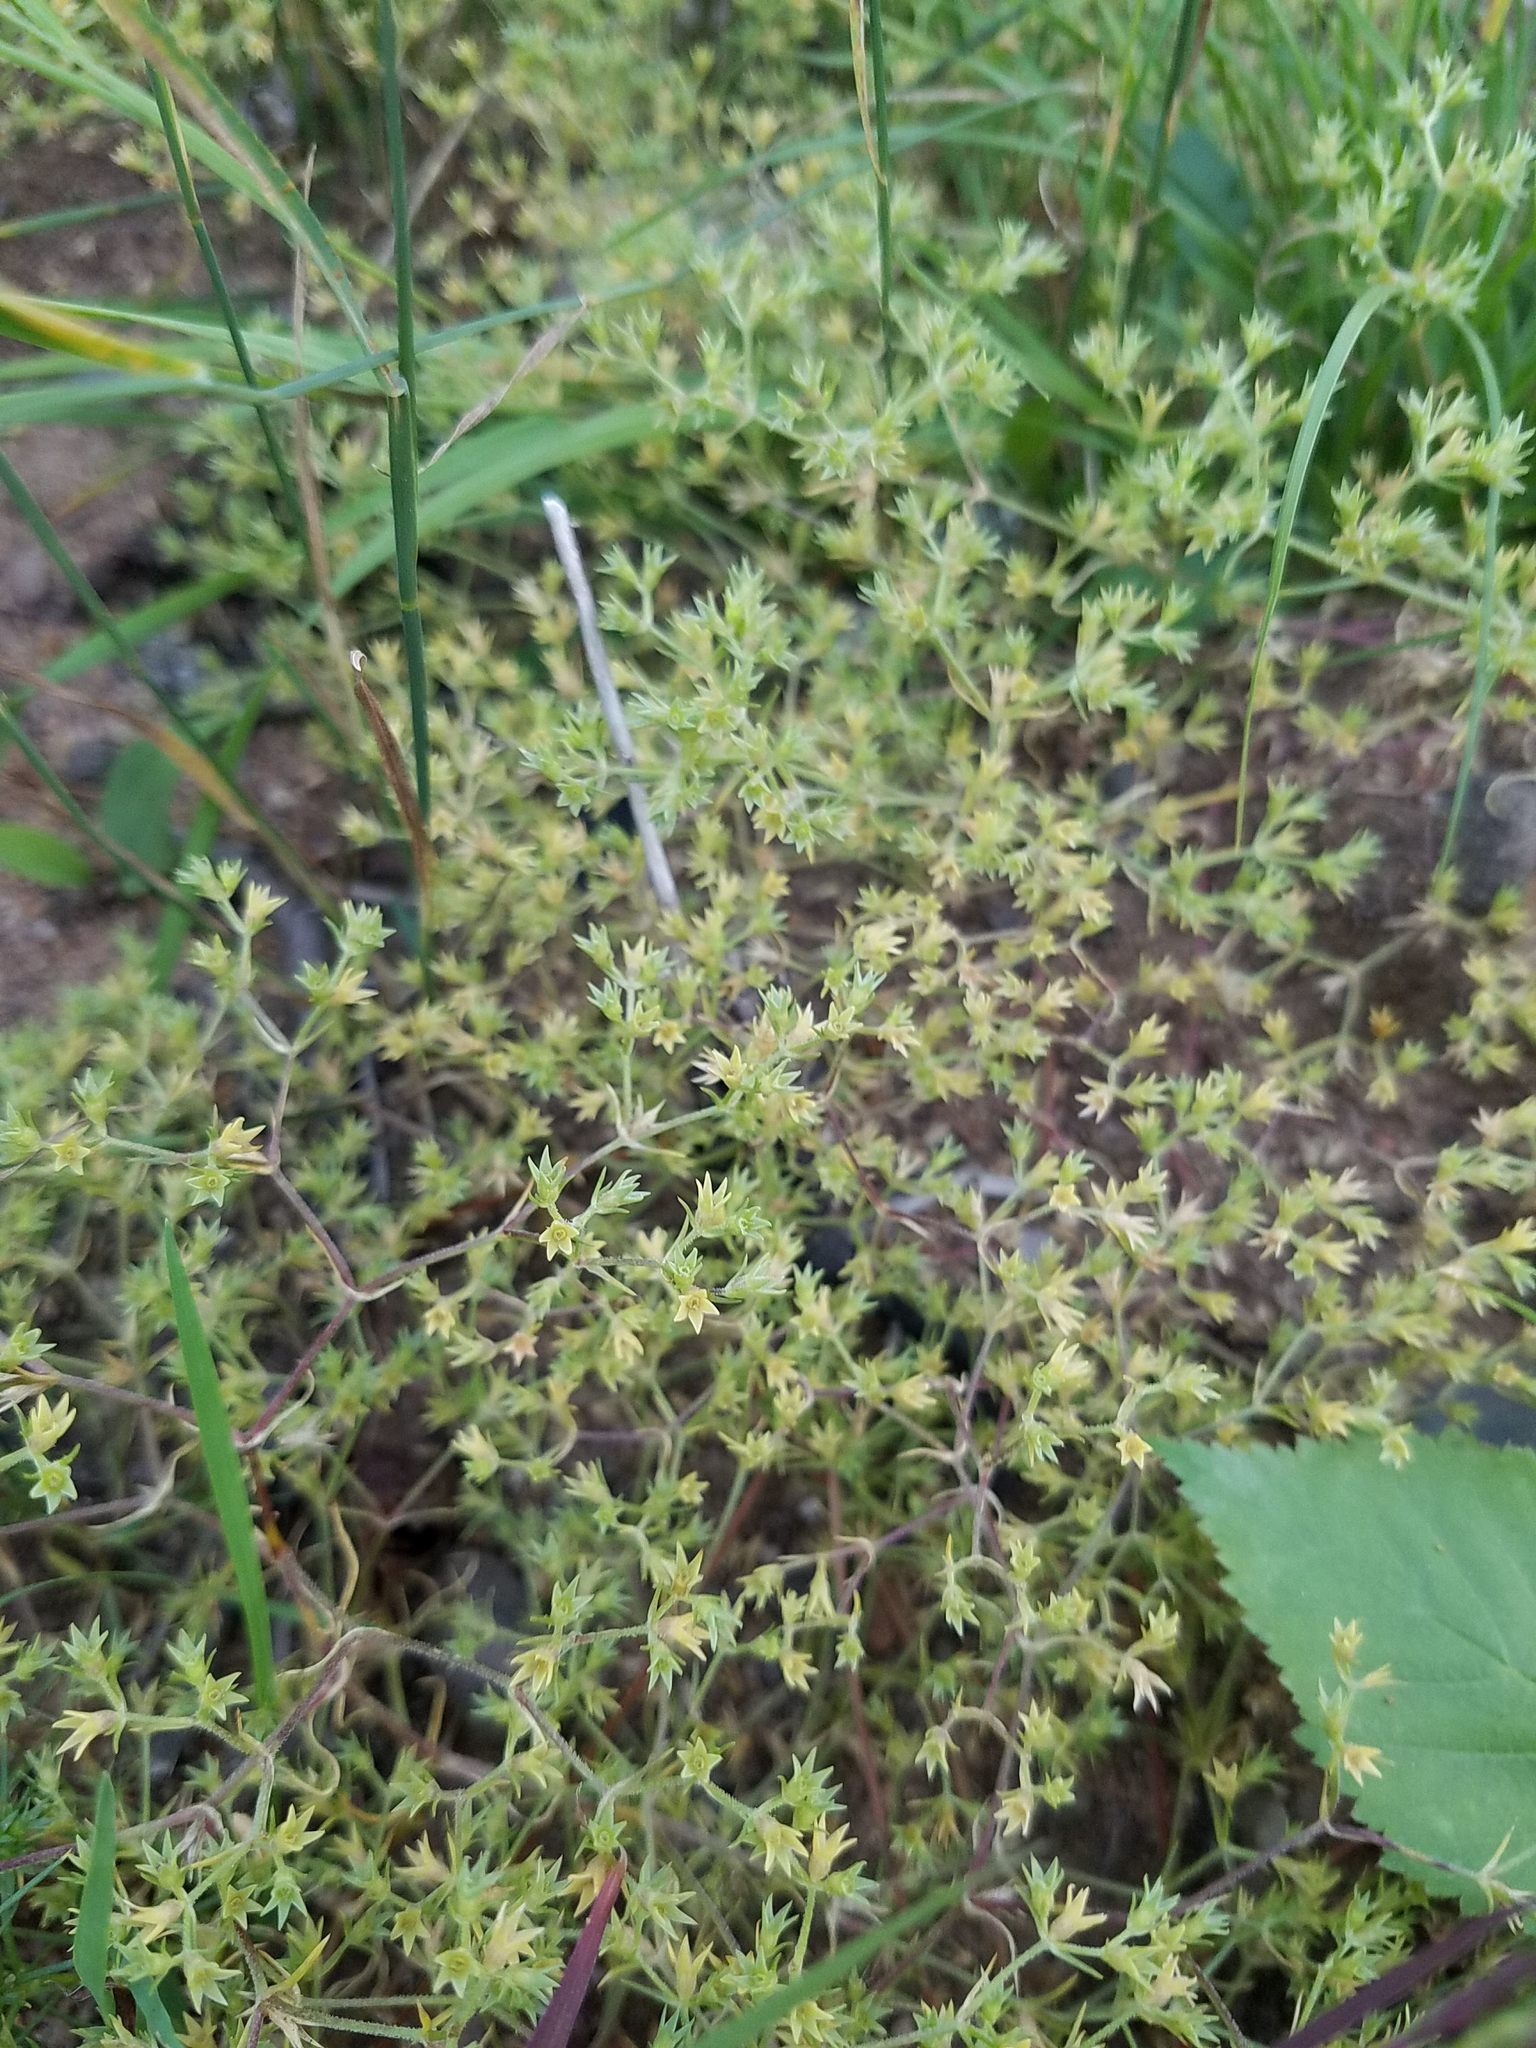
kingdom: Plantae
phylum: Tracheophyta
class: Magnoliopsida
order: Caryophyllales
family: Caryophyllaceae
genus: Scleranthus
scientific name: Scleranthus annuus
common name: Annual knawel
